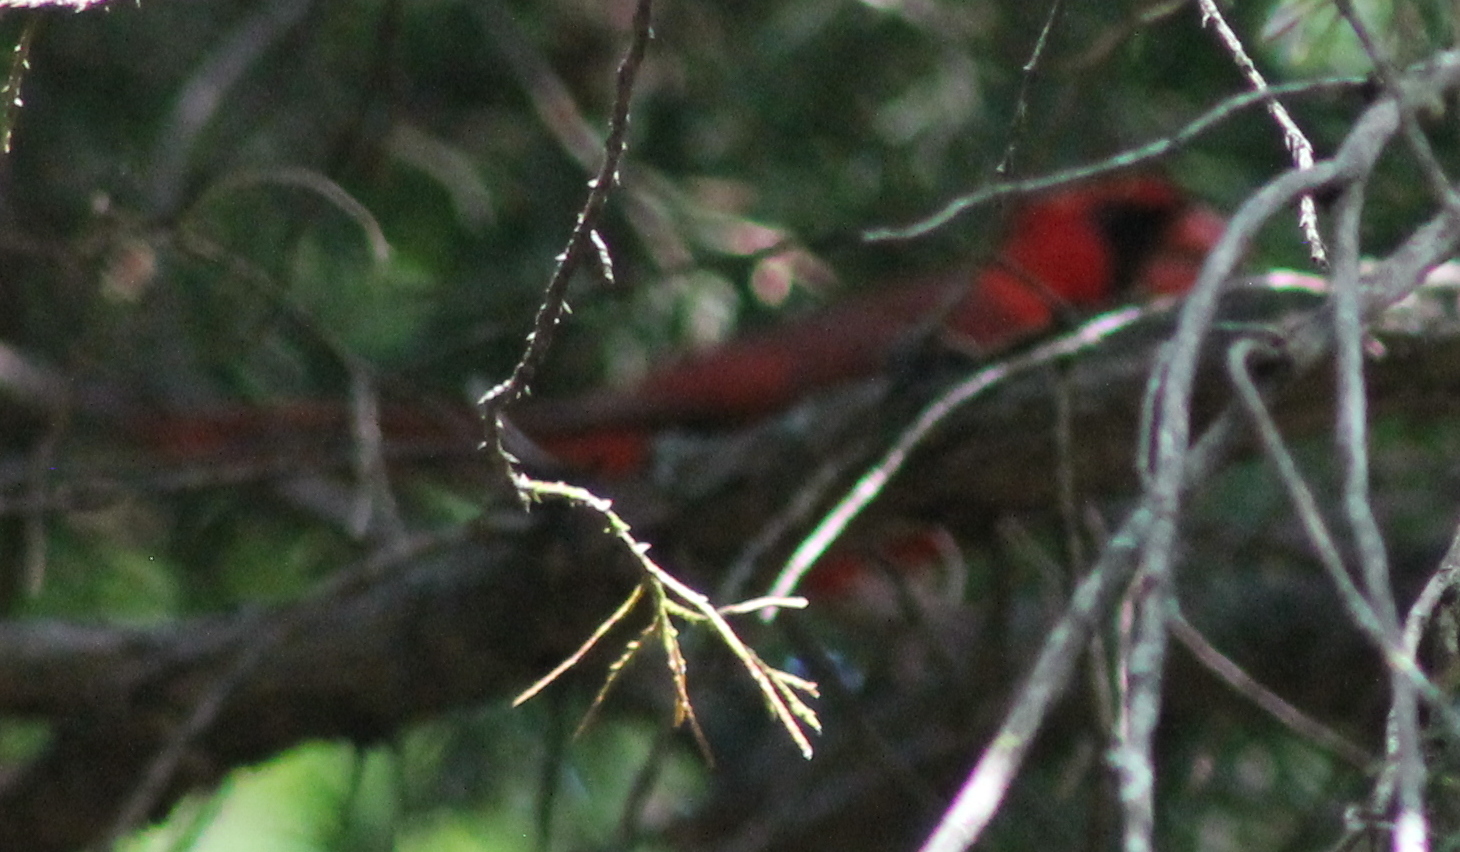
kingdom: Animalia
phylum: Chordata
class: Aves
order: Passeriformes
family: Cardinalidae
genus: Cardinalis
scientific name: Cardinalis cardinalis
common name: Northern cardinal
